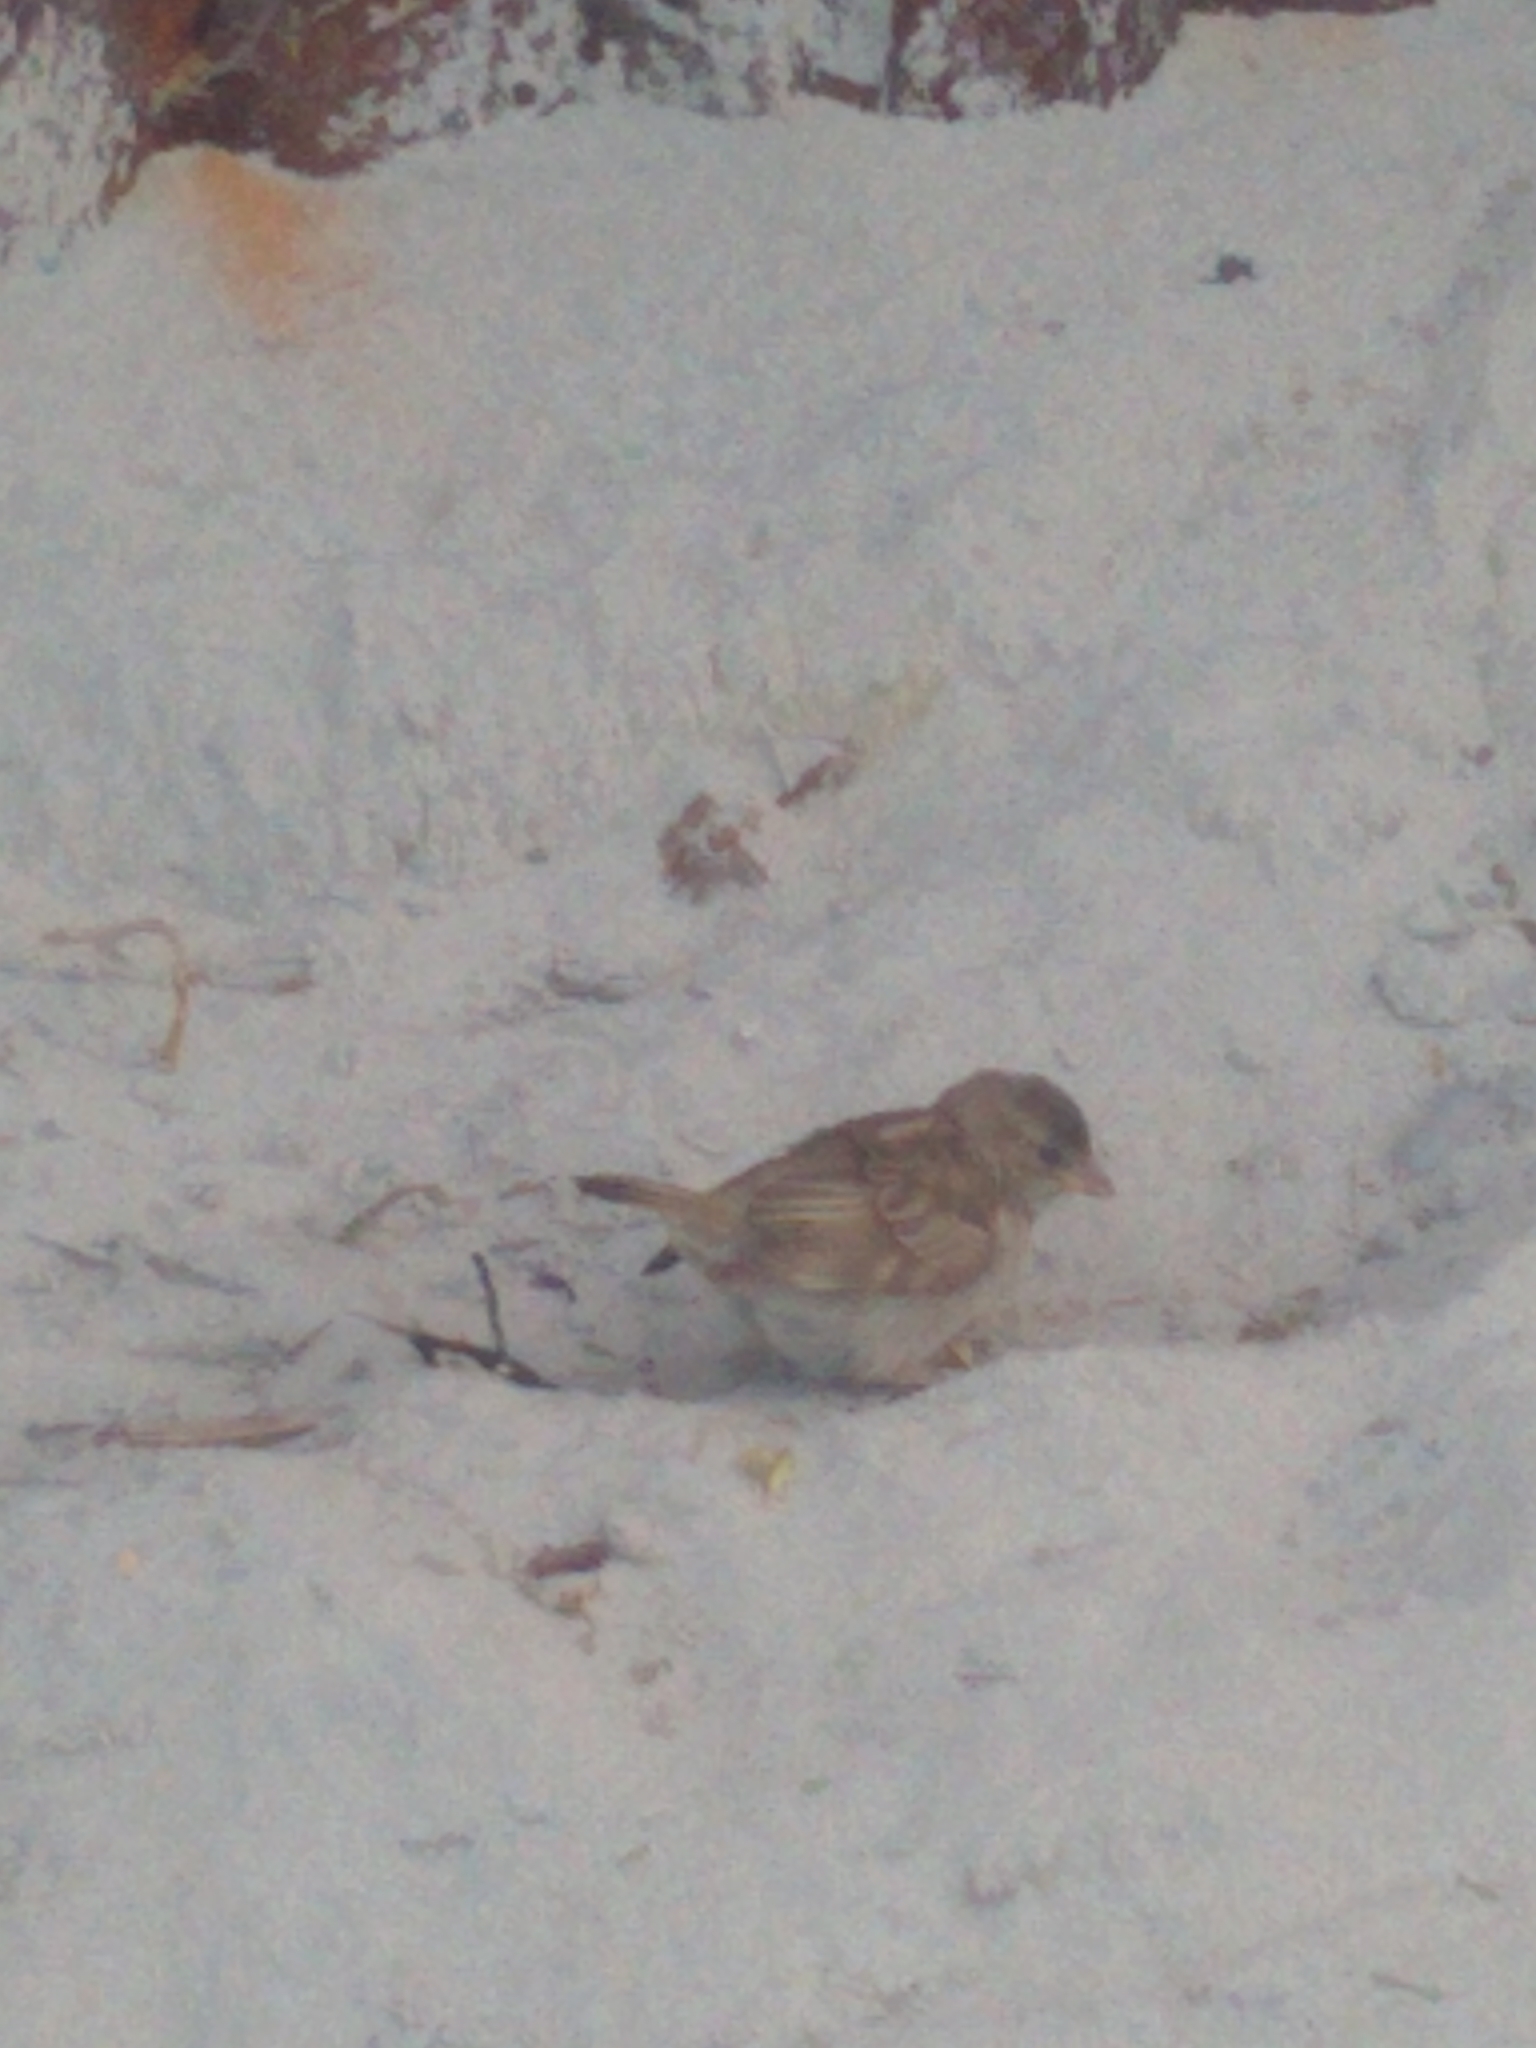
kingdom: Animalia
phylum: Chordata
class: Aves
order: Passeriformes
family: Passeridae
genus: Passer
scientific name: Passer domesticus
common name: House sparrow
